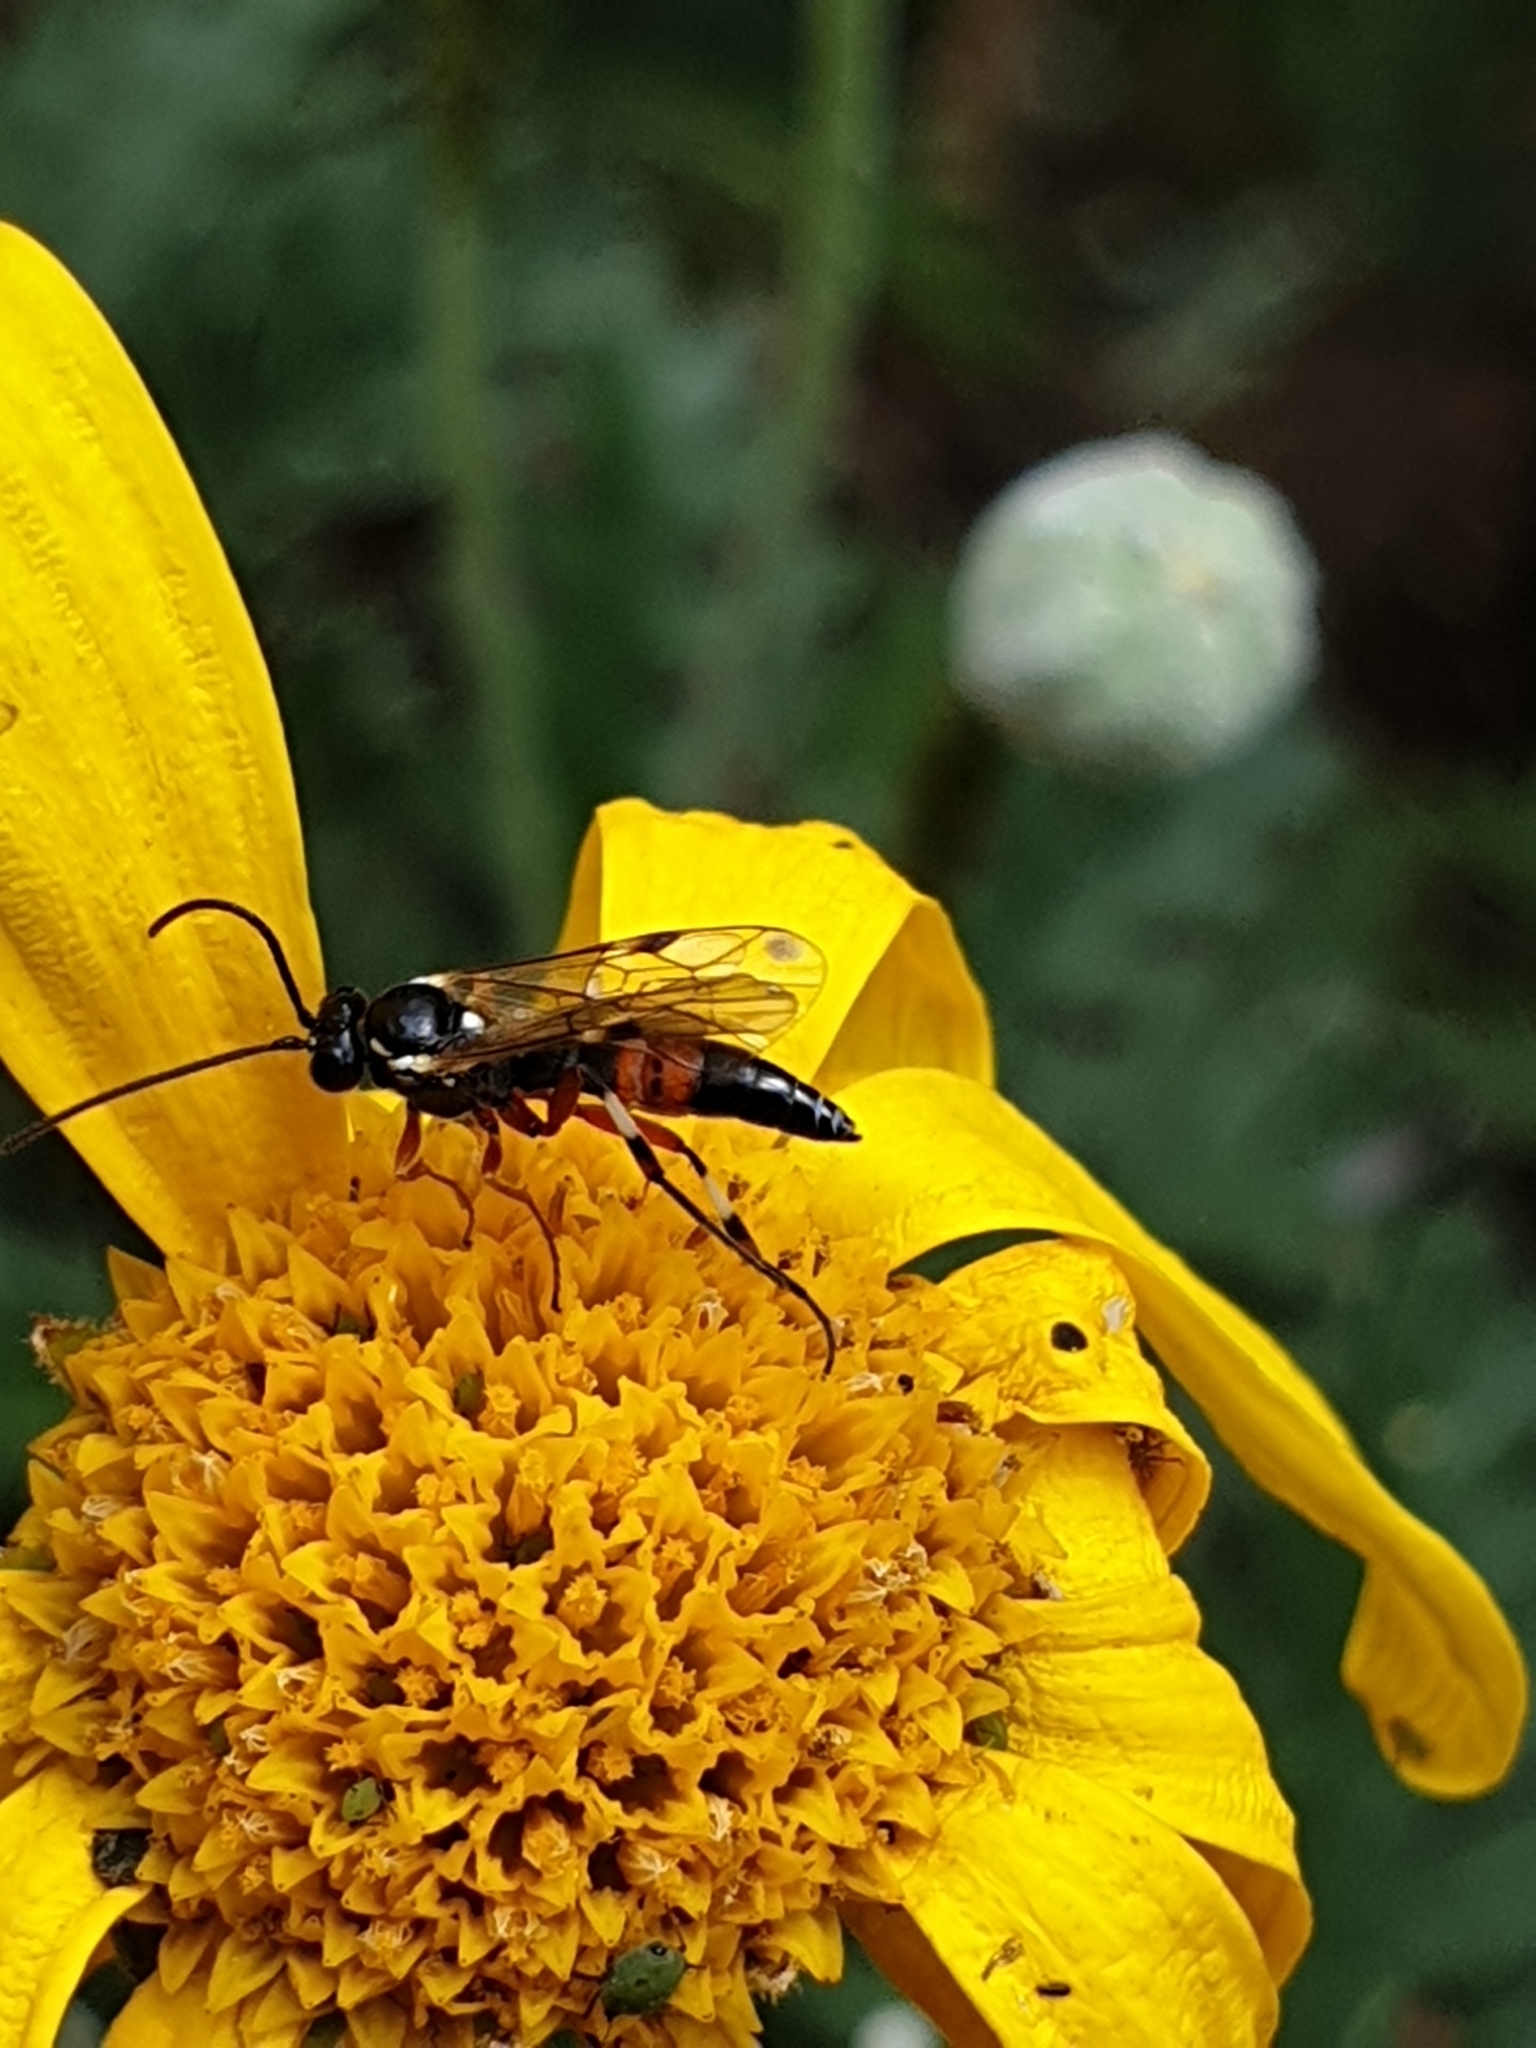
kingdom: Animalia
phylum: Arthropoda
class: Insecta
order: Hymenoptera
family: Ichneumonidae
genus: Diplazon
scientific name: Diplazon laetatorius
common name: Parasitoid wasp
